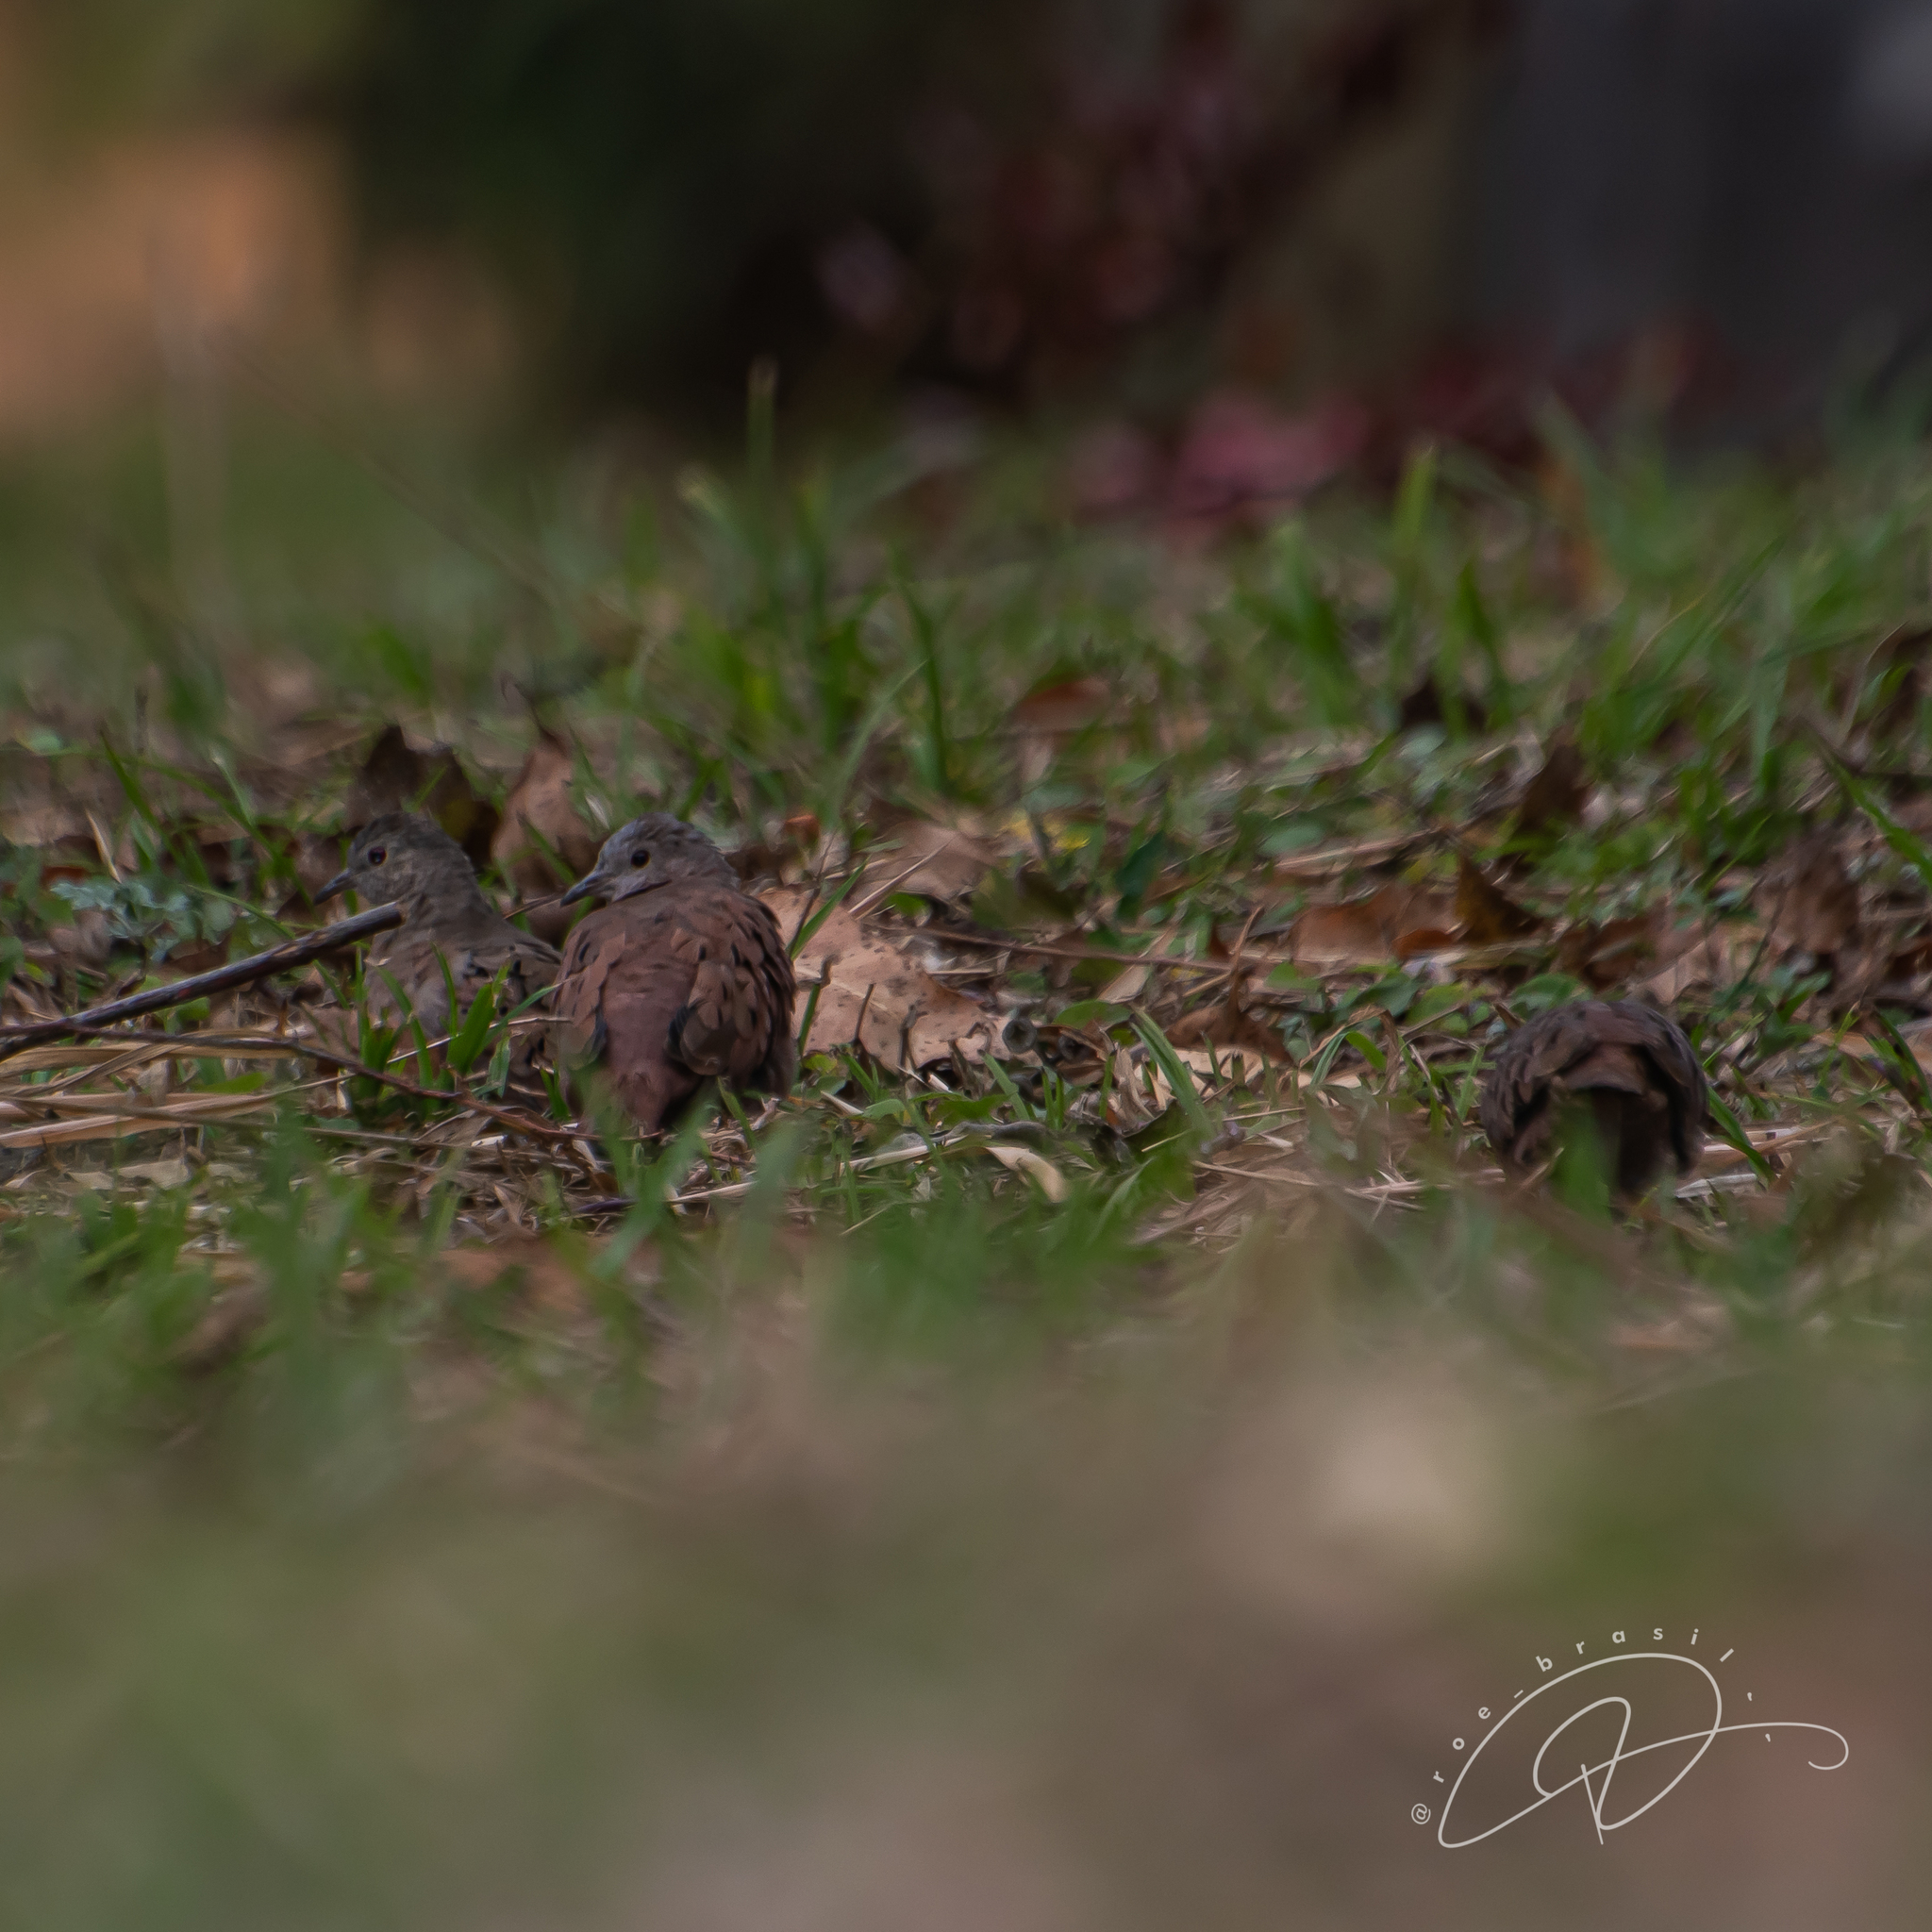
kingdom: Animalia
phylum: Chordata
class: Aves
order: Columbiformes
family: Columbidae
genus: Columbina
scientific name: Columbina talpacoti
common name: Ruddy ground dove
